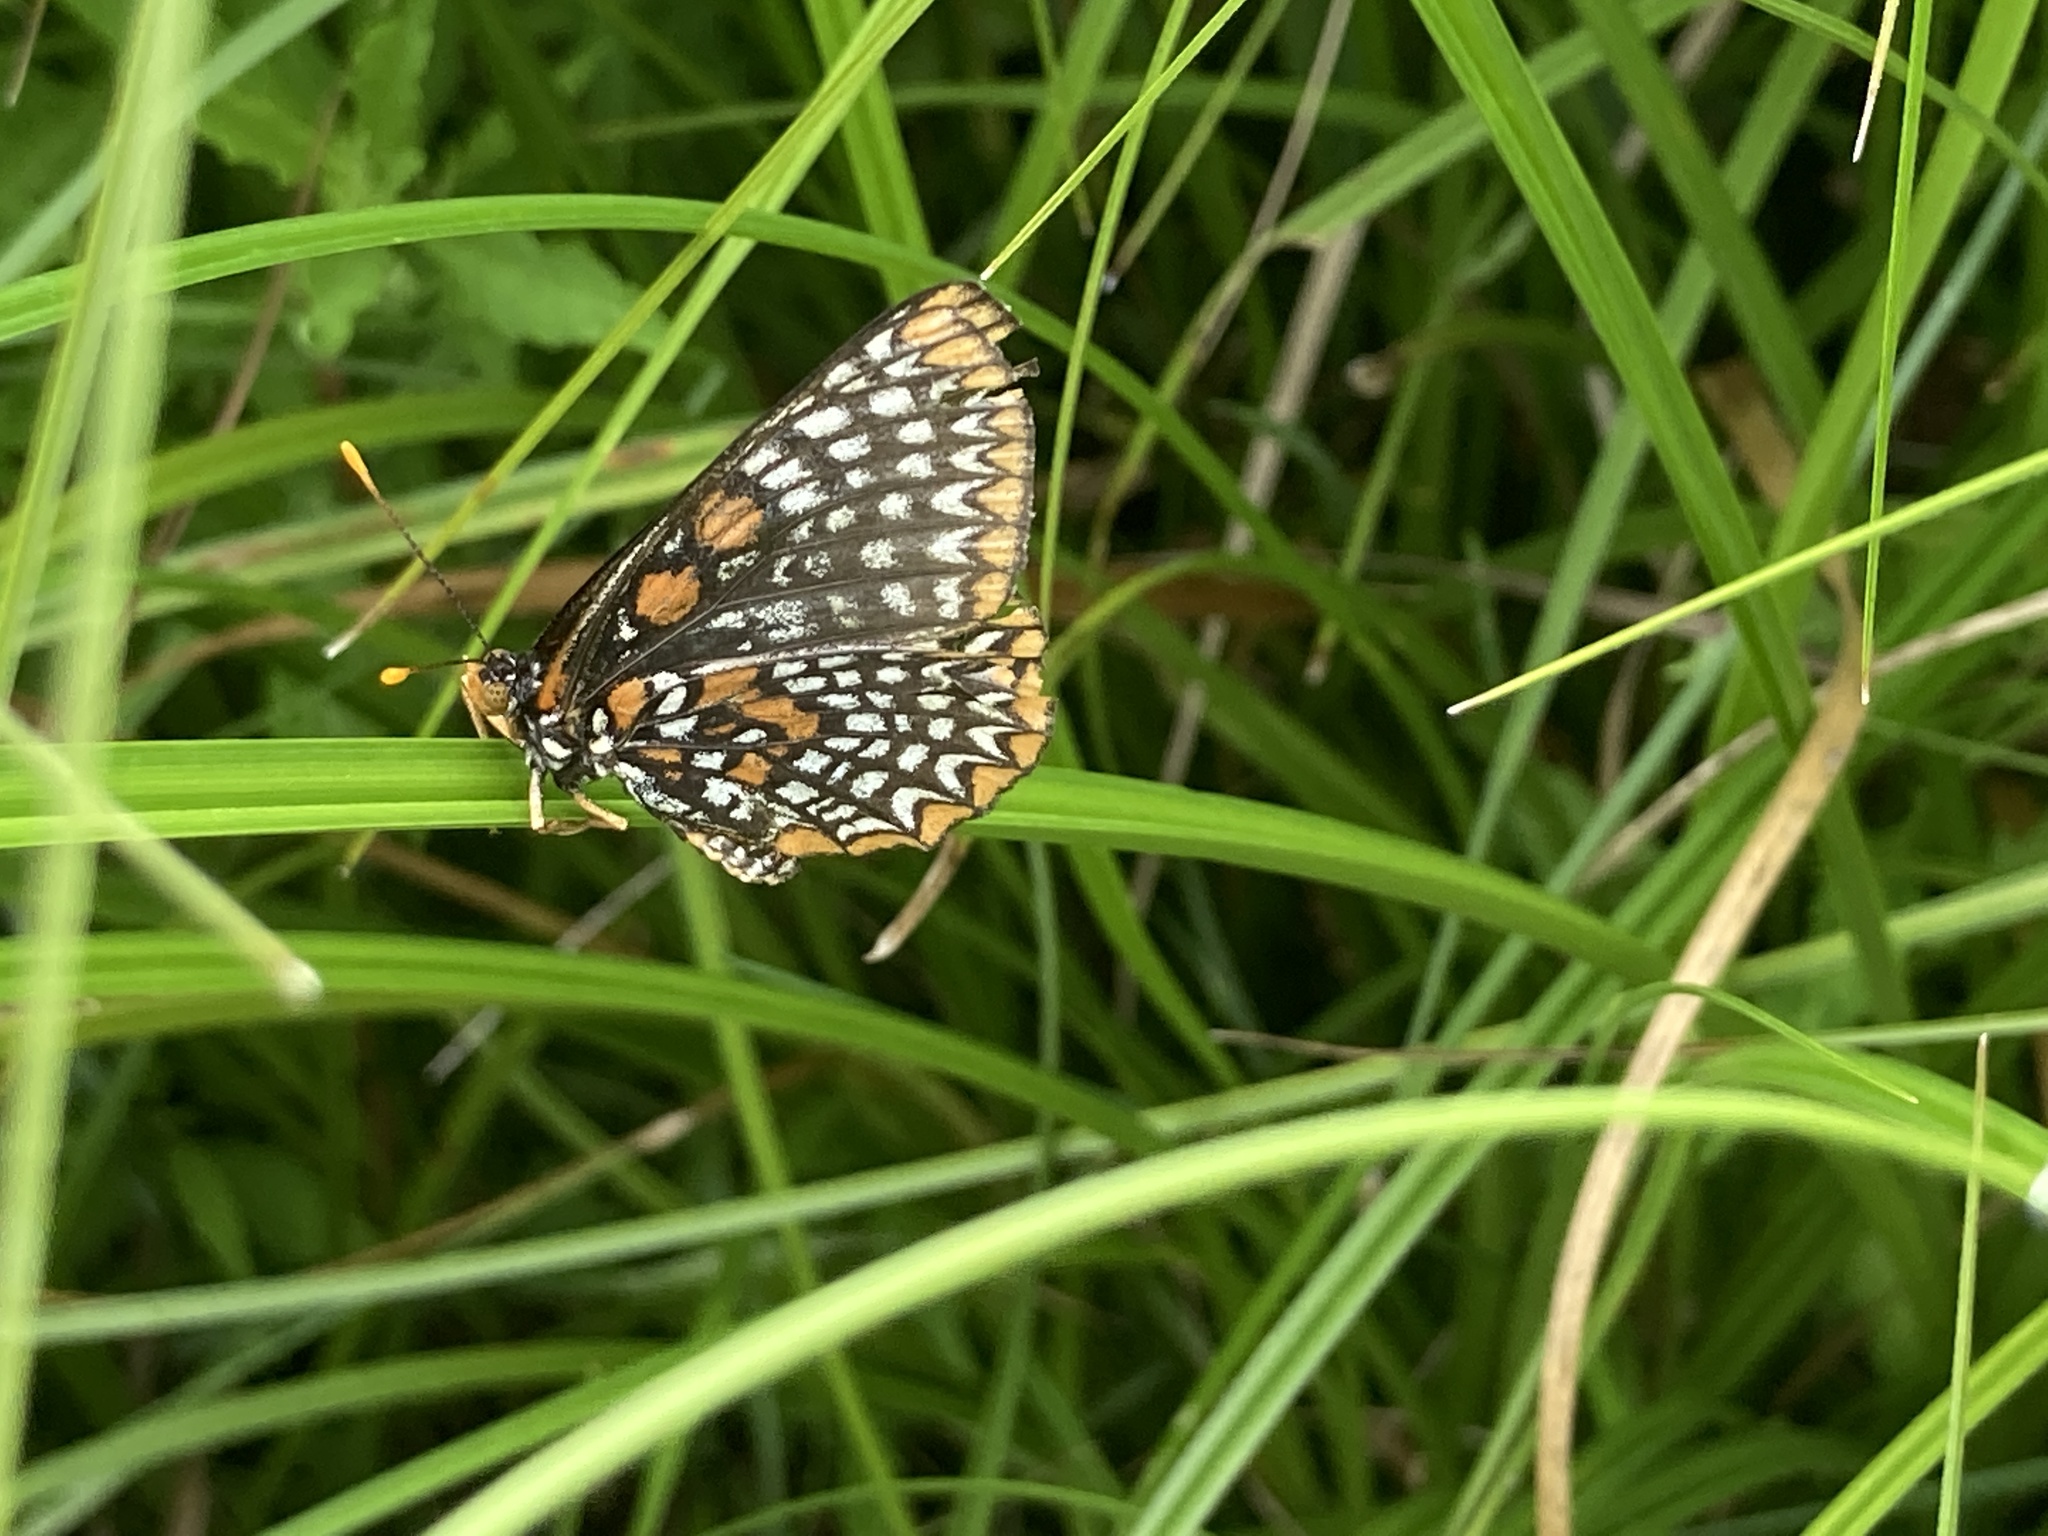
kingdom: Animalia
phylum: Arthropoda
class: Insecta
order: Lepidoptera
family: Nymphalidae
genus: Euphydryas
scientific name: Euphydryas phaeton
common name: Baltimore checkerspot
